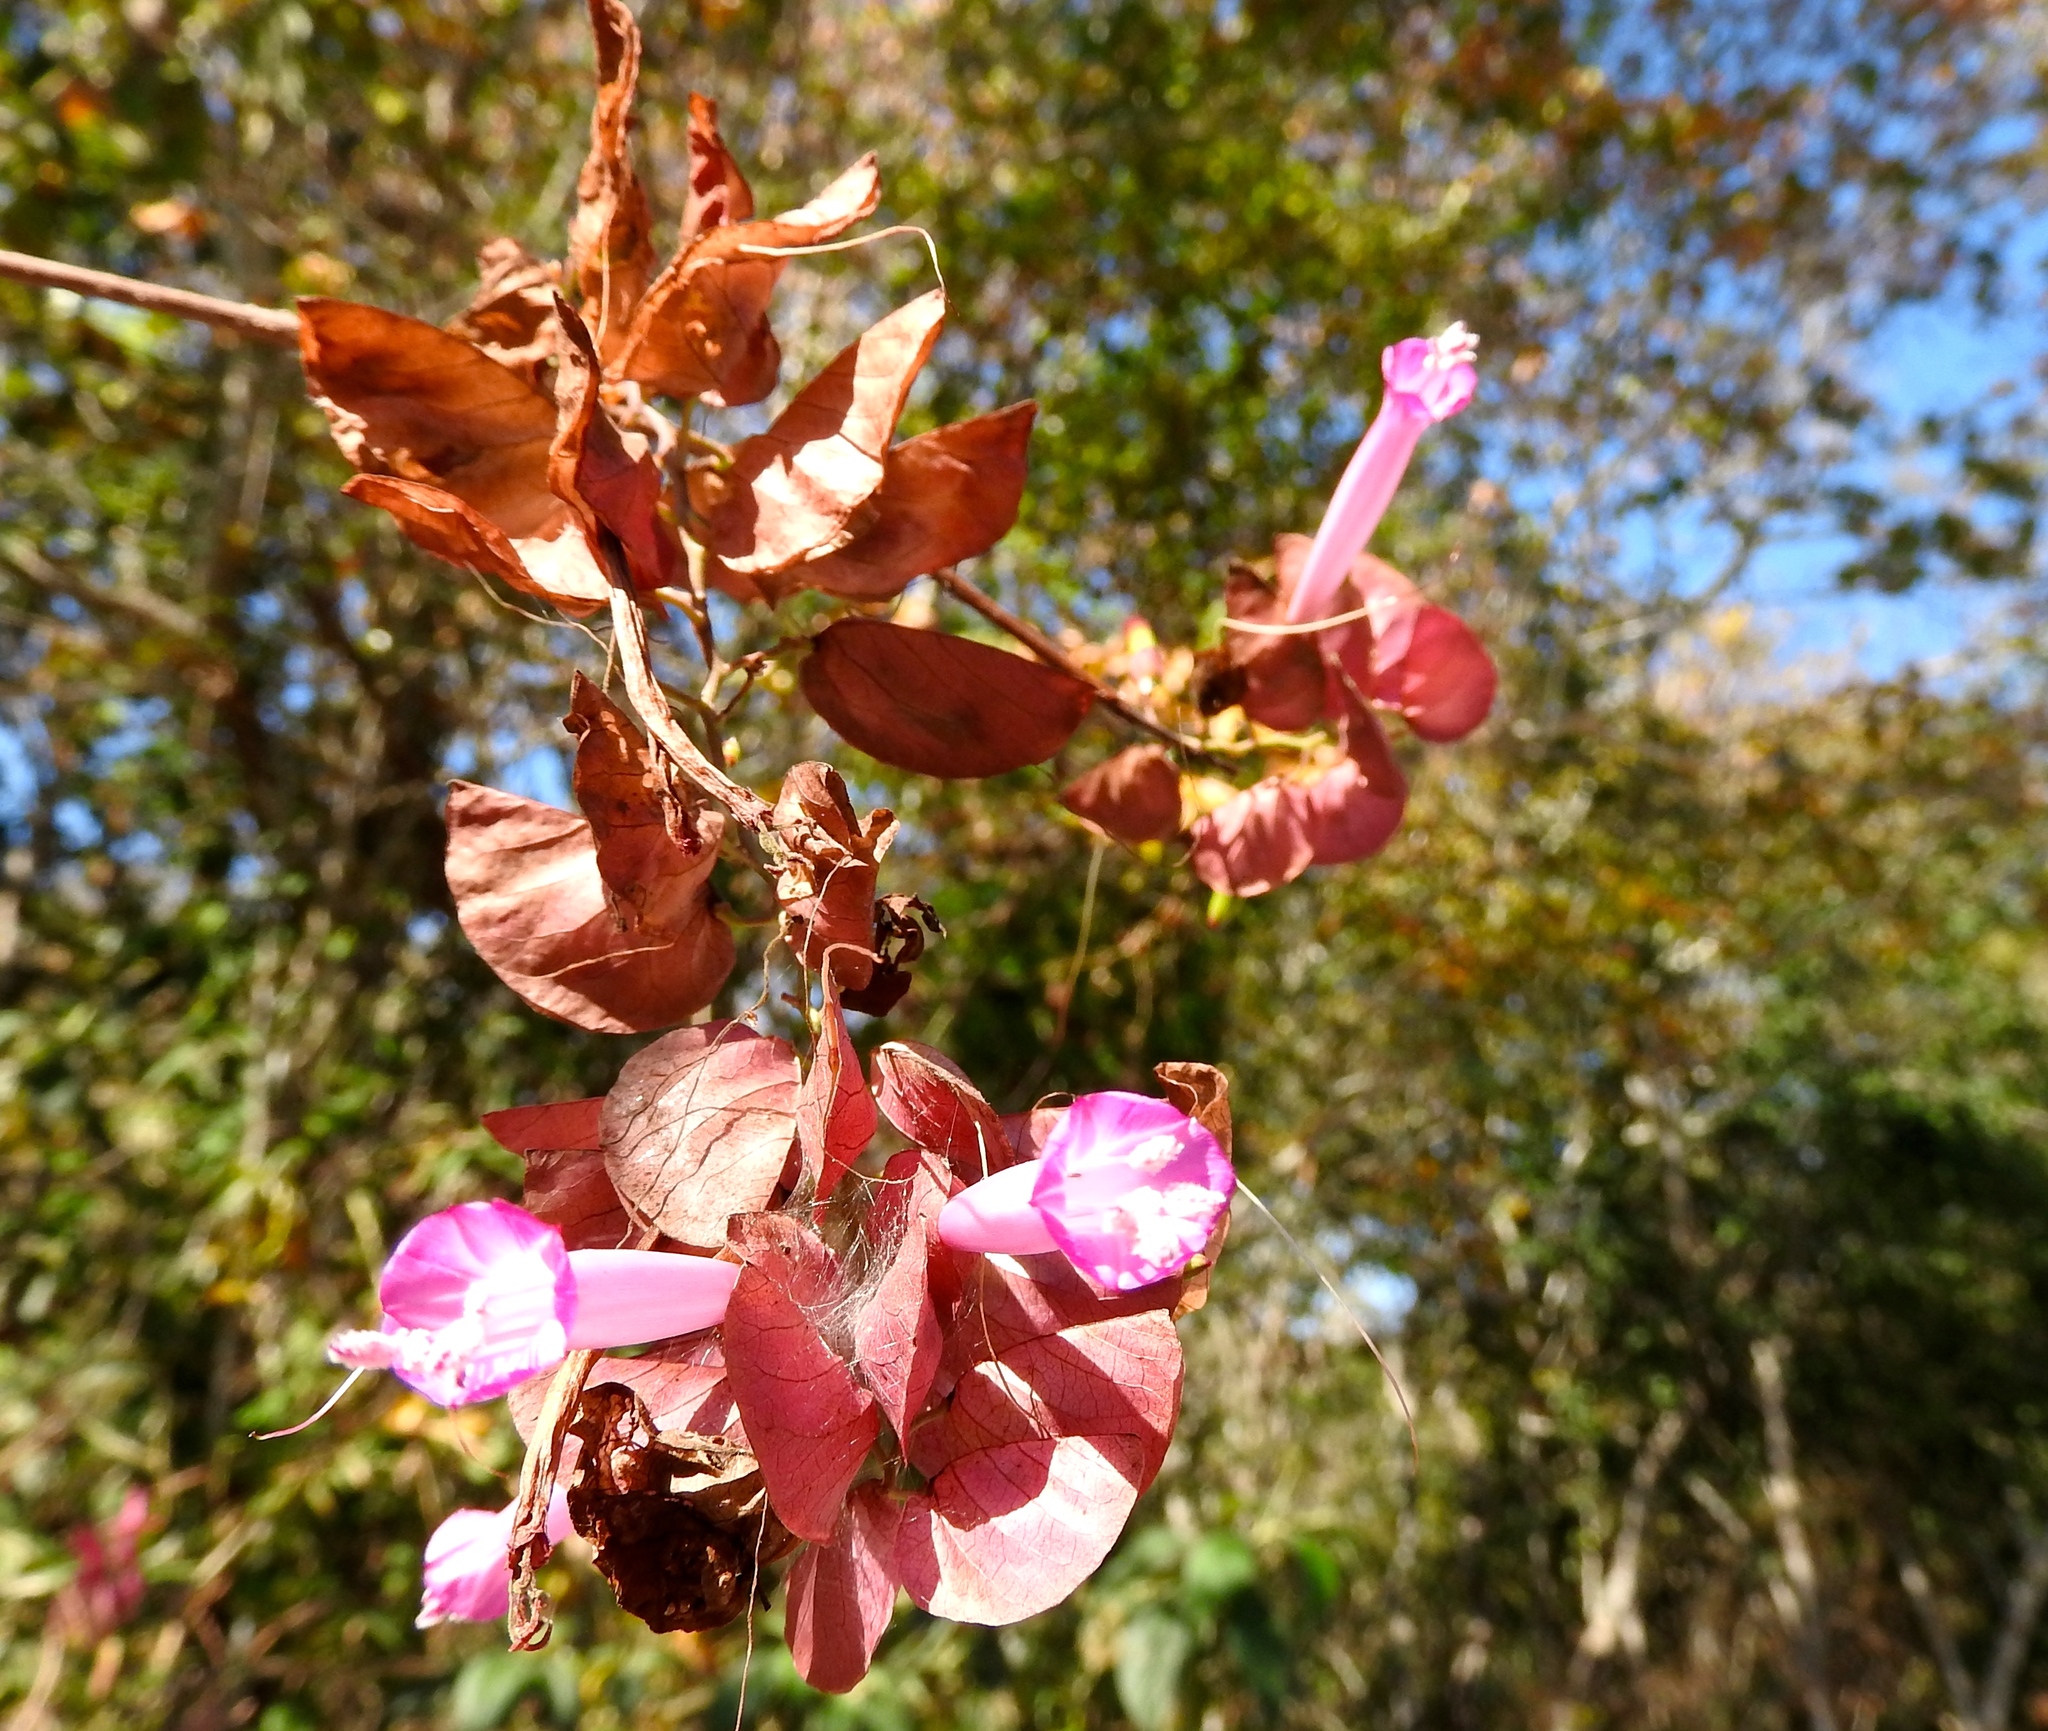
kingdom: Plantae
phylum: Tracheophyta
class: Magnoliopsida
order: Solanales
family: Convolvulaceae
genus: Ipomoea
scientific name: Ipomoea bracteata
